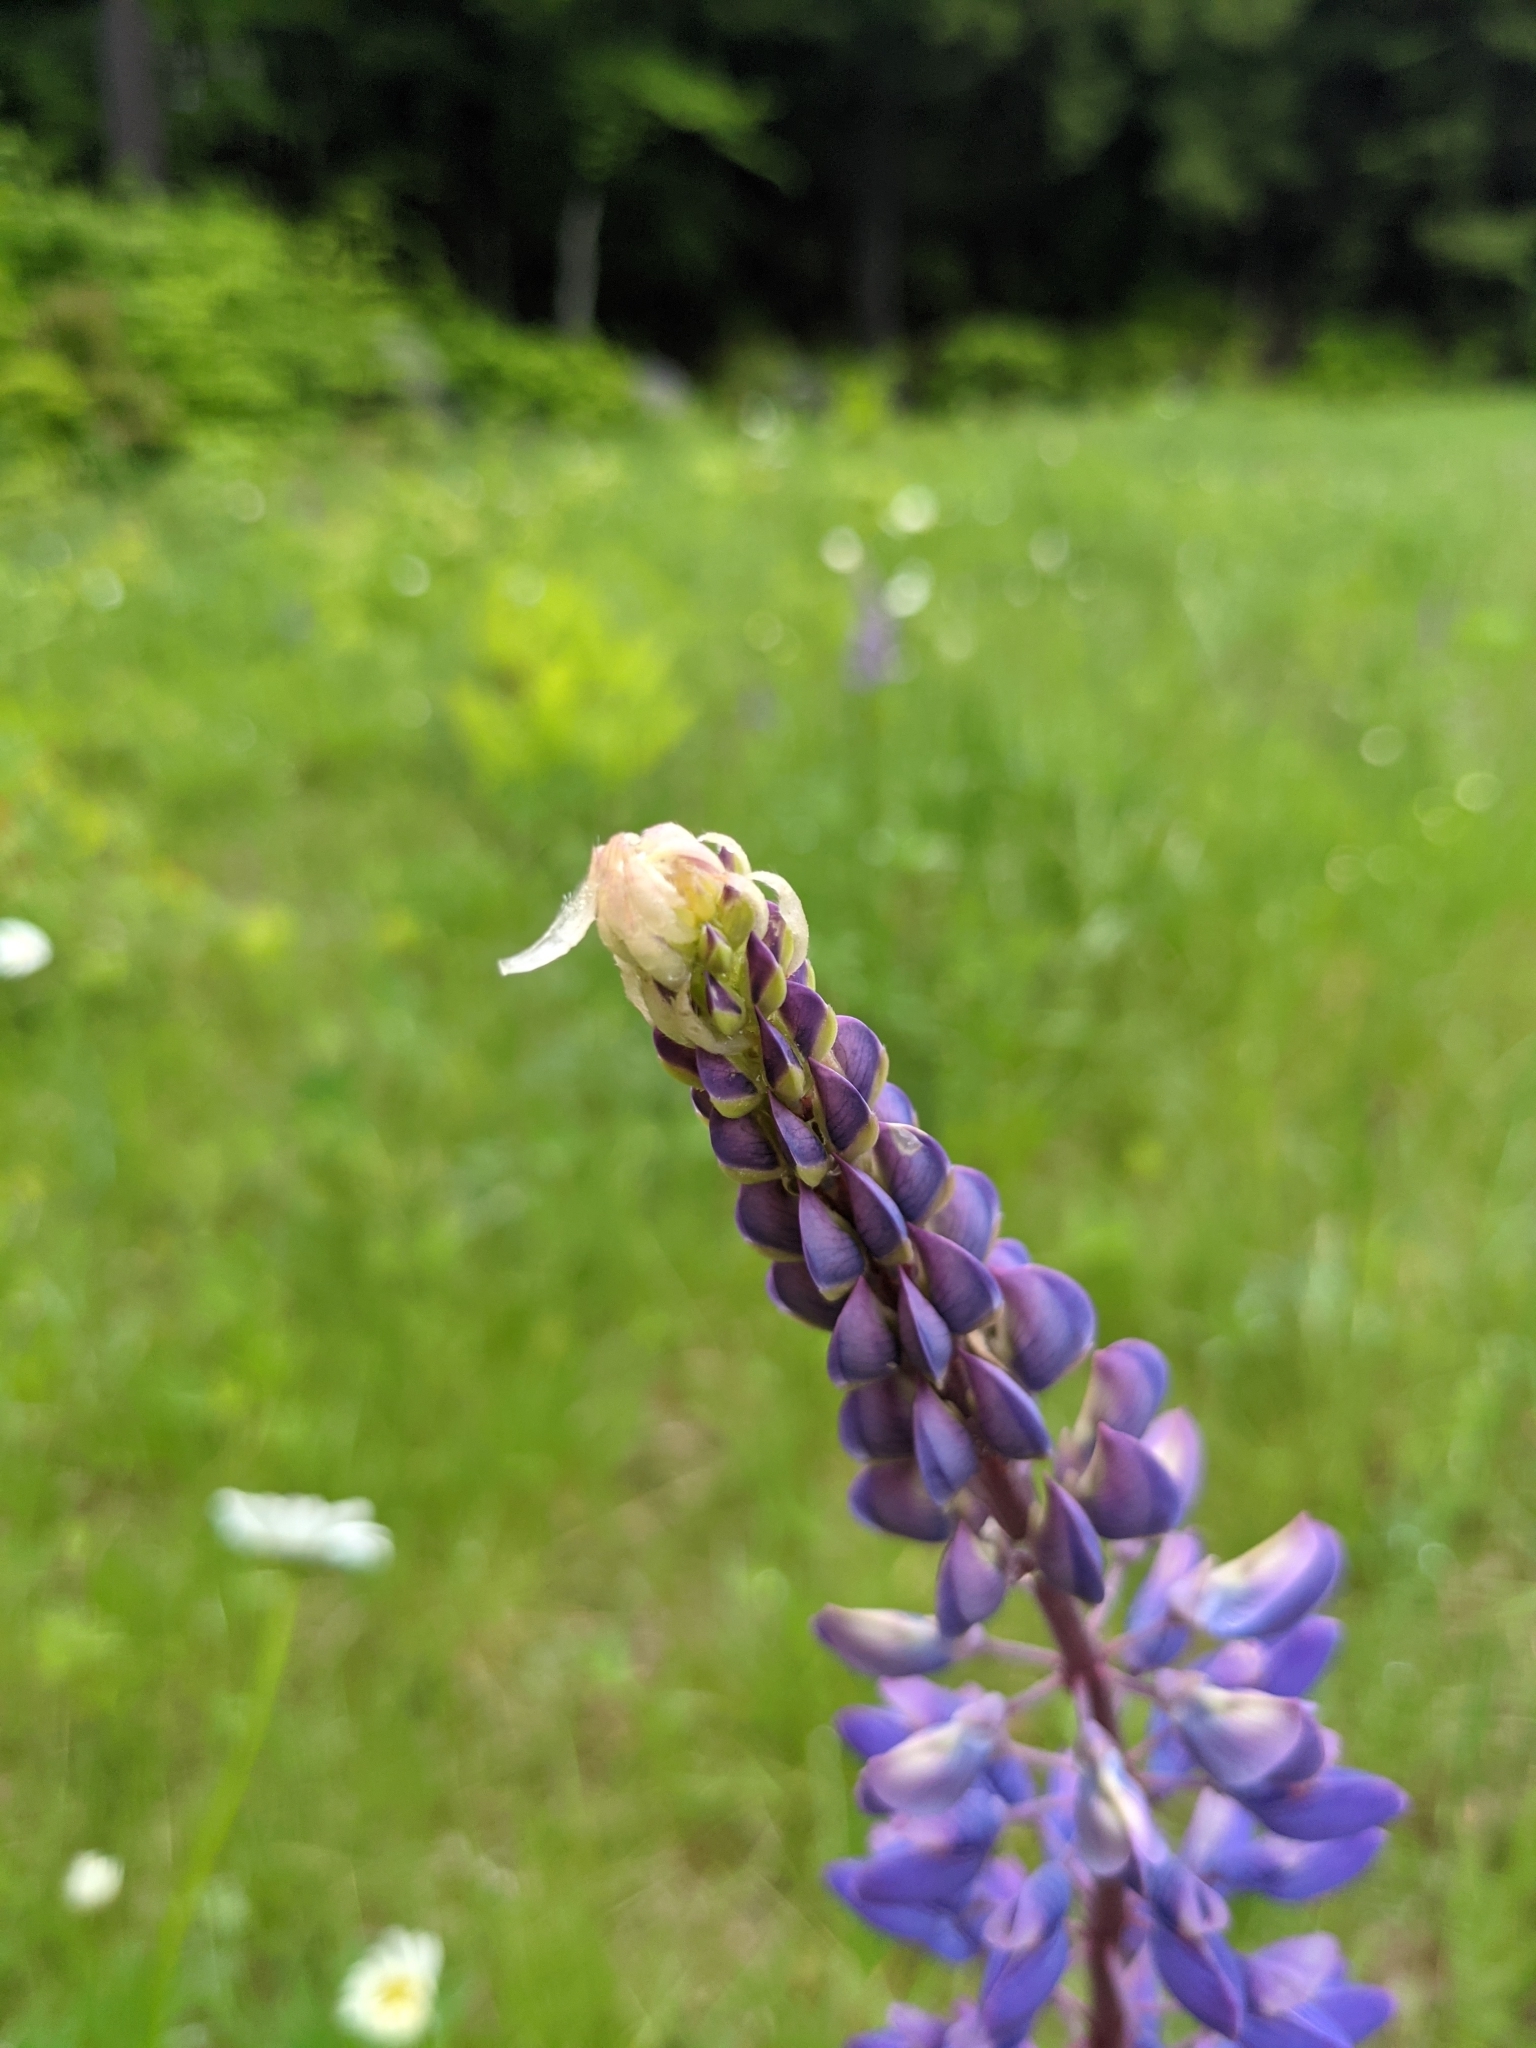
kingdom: Plantae
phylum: Tracheophyta
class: Magnoliopsida
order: Fabales
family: Fabaceae
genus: Lupinus
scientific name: Lupinus polyphyllus
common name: Garden lupin
